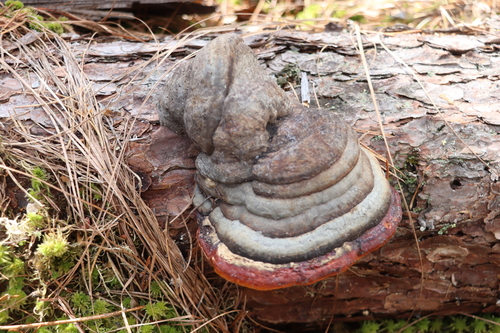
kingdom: Fungi
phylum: Basidiomycota
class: Agaricomycetes
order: Polyporales
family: Fomitopsidaceae
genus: Fomitopsis
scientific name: Fomitopsis pinicola
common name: Red-belted bracket
